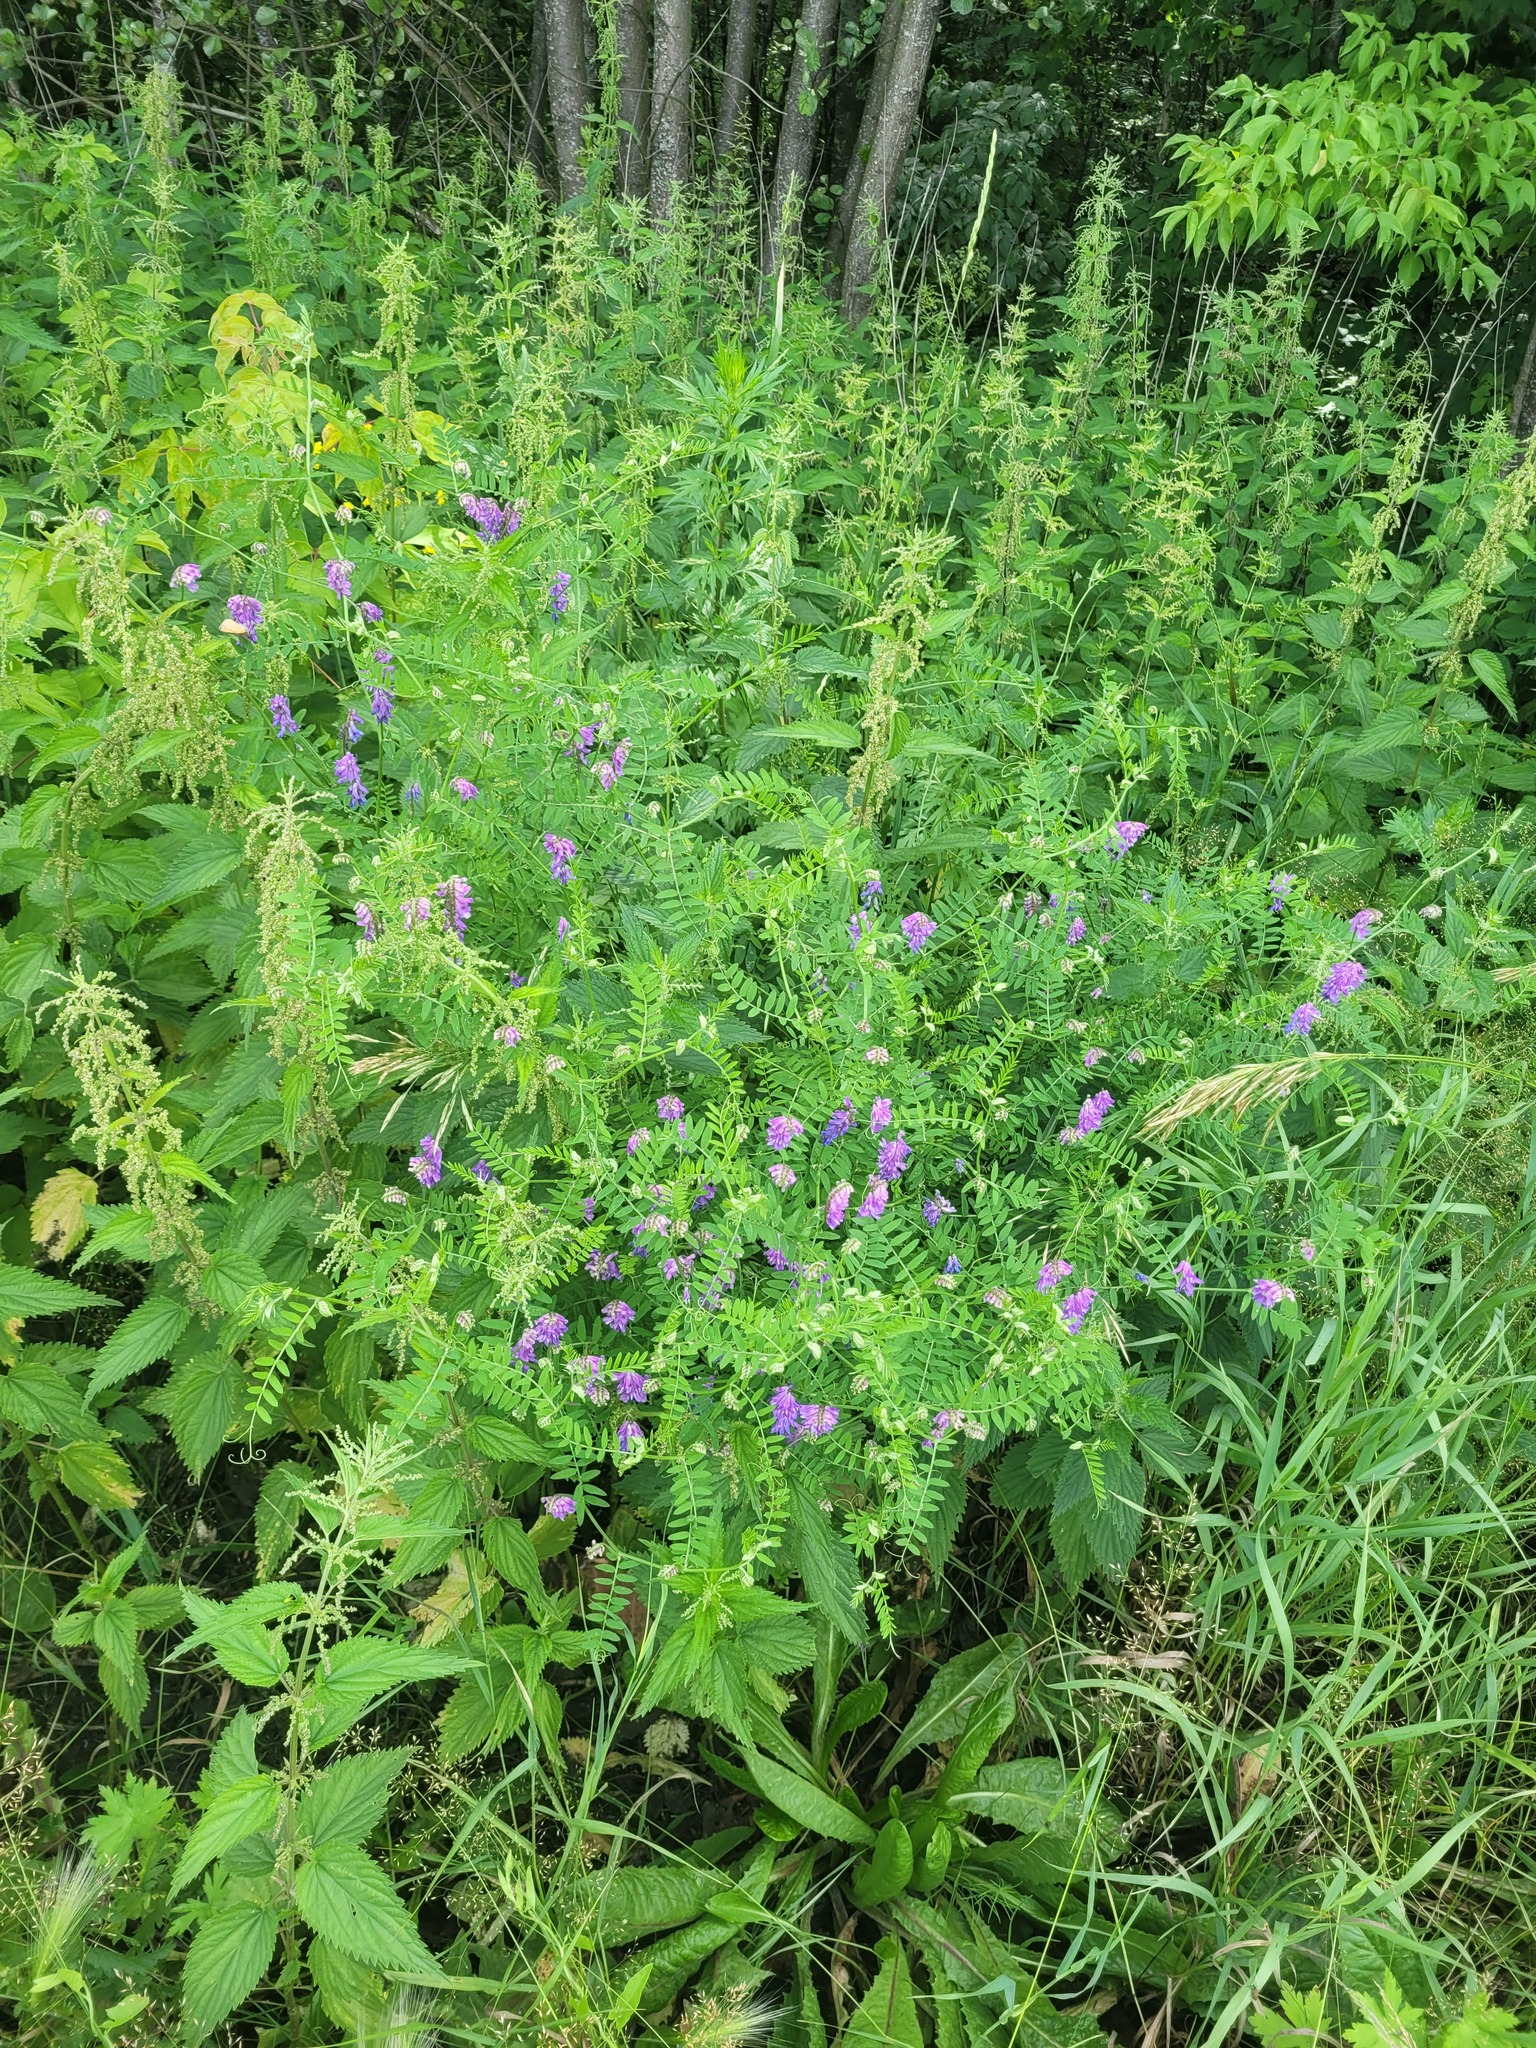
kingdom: Plantae
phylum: Tracheophyta
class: Magnoliopsida
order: Fabales
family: Fabaceae
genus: Vicia
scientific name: Vicia cracca
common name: Bird vetch
